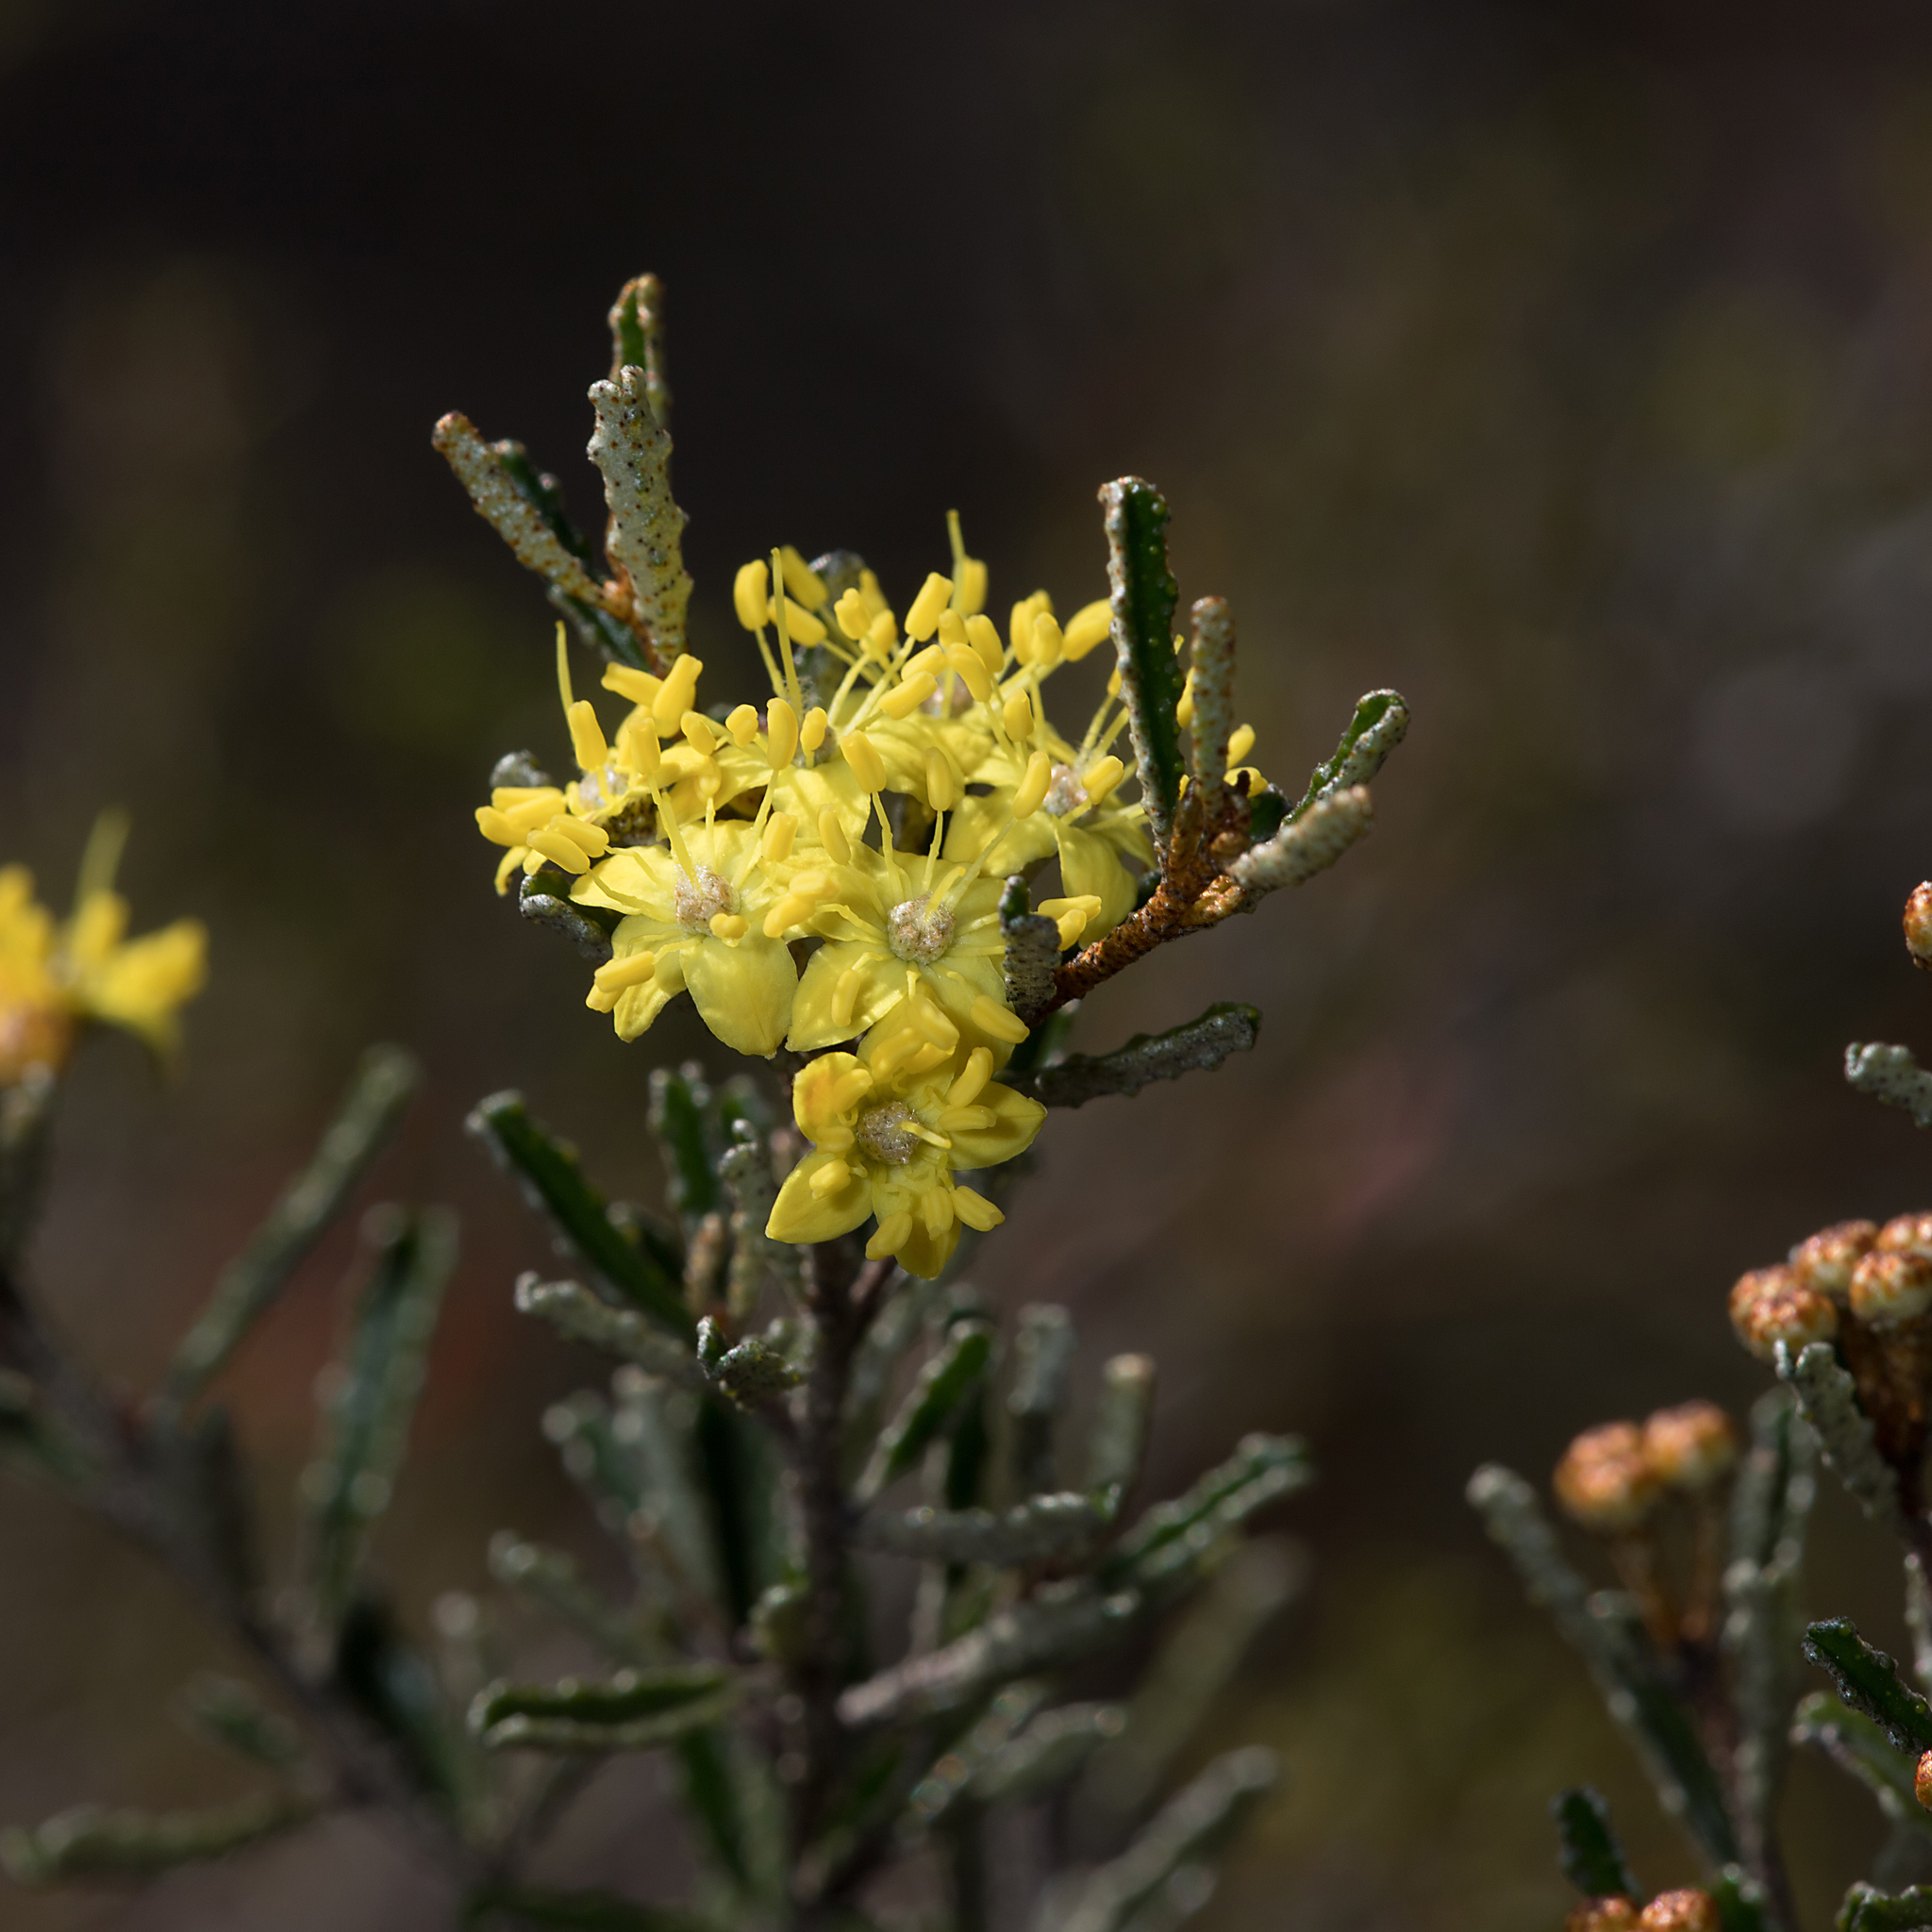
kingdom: Plantae
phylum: Tracheophyta
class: Magnoliopsida
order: Sapindales
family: Rutaceae
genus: Phebalium
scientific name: Phebalium bullatum
